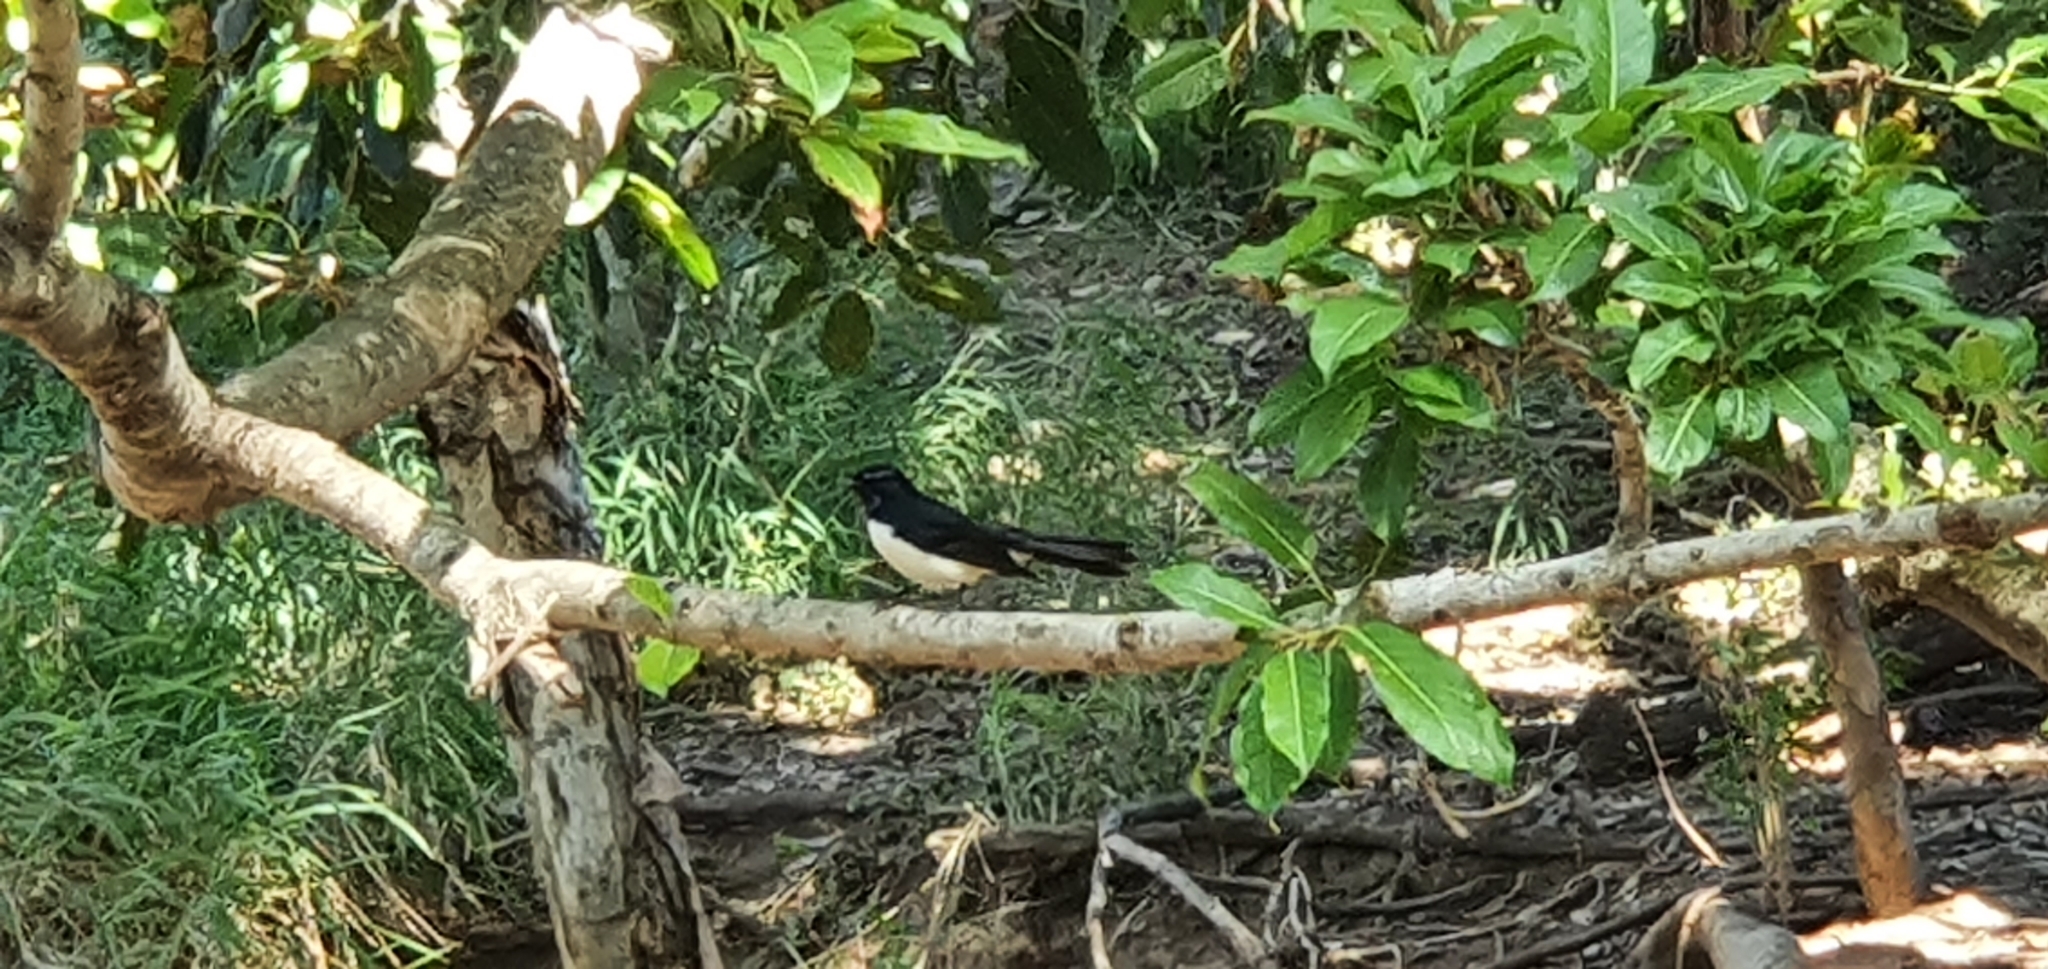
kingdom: Animalia
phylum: Chordata
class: Aves
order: Passeriformes
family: Rhipiduridae
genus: Rhipidura
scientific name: Rhipidura leucophrys
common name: Willie wagtail
